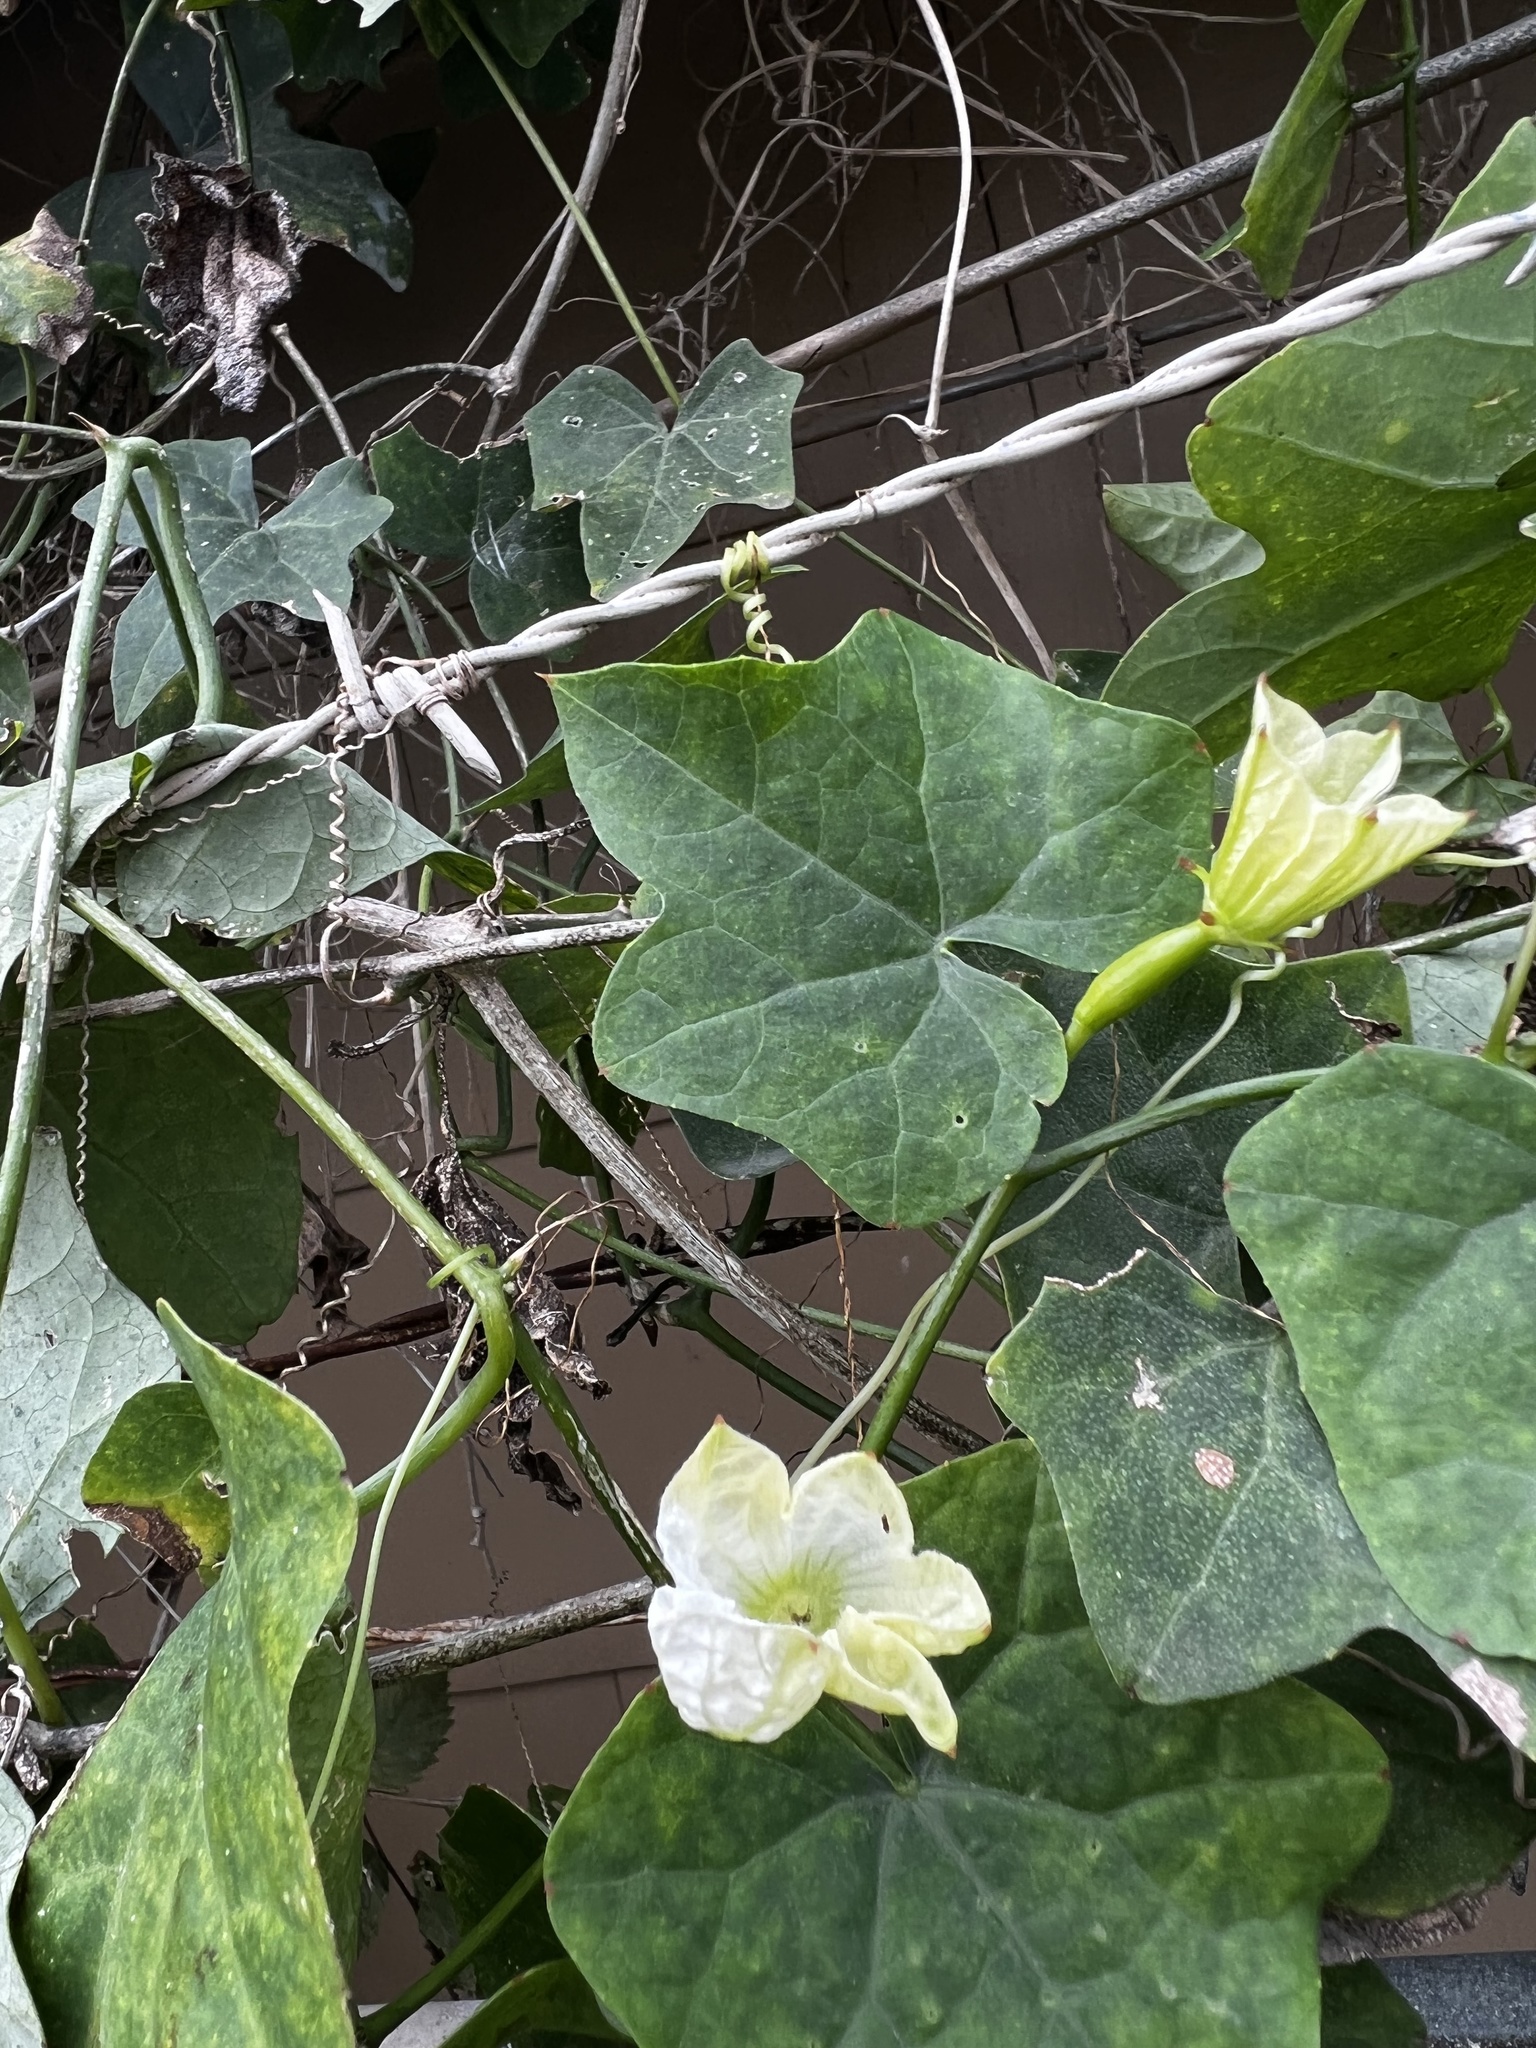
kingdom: Plantae
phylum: Tracheophyta
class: Magnoliopsida
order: Cucurbitales
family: Cucurbitaceae
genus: Coccinia
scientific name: Coccinia grandis
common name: Ivy gourd
